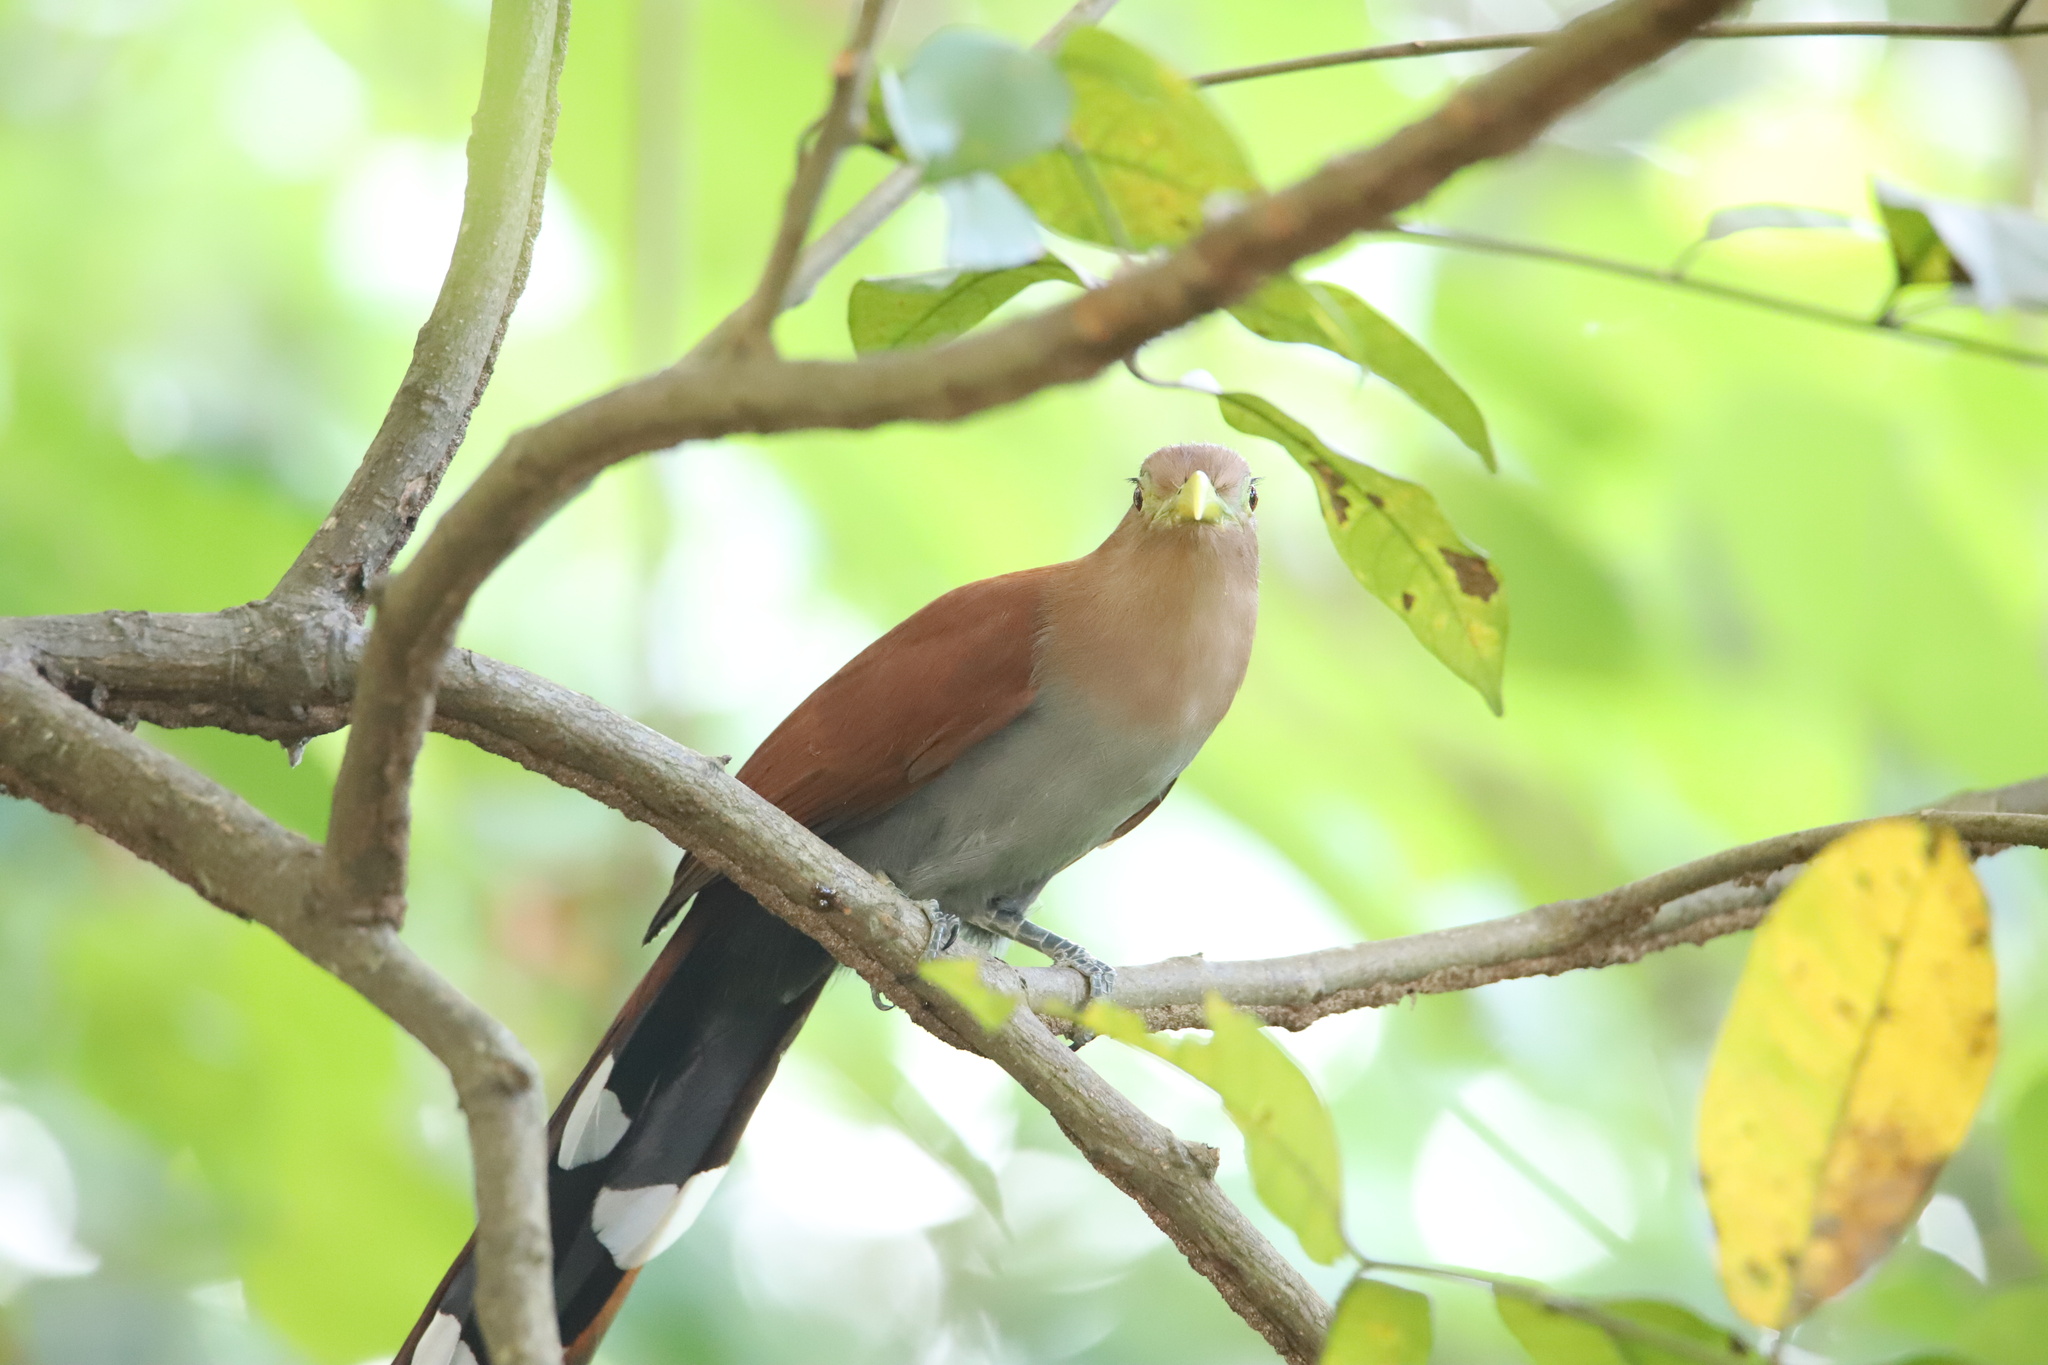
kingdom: Animalia
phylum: Chordata
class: Aves
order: Cuculiformes
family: Cuculidae
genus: Piaya
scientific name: Piaya cayana
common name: Squirrel cuckoo
